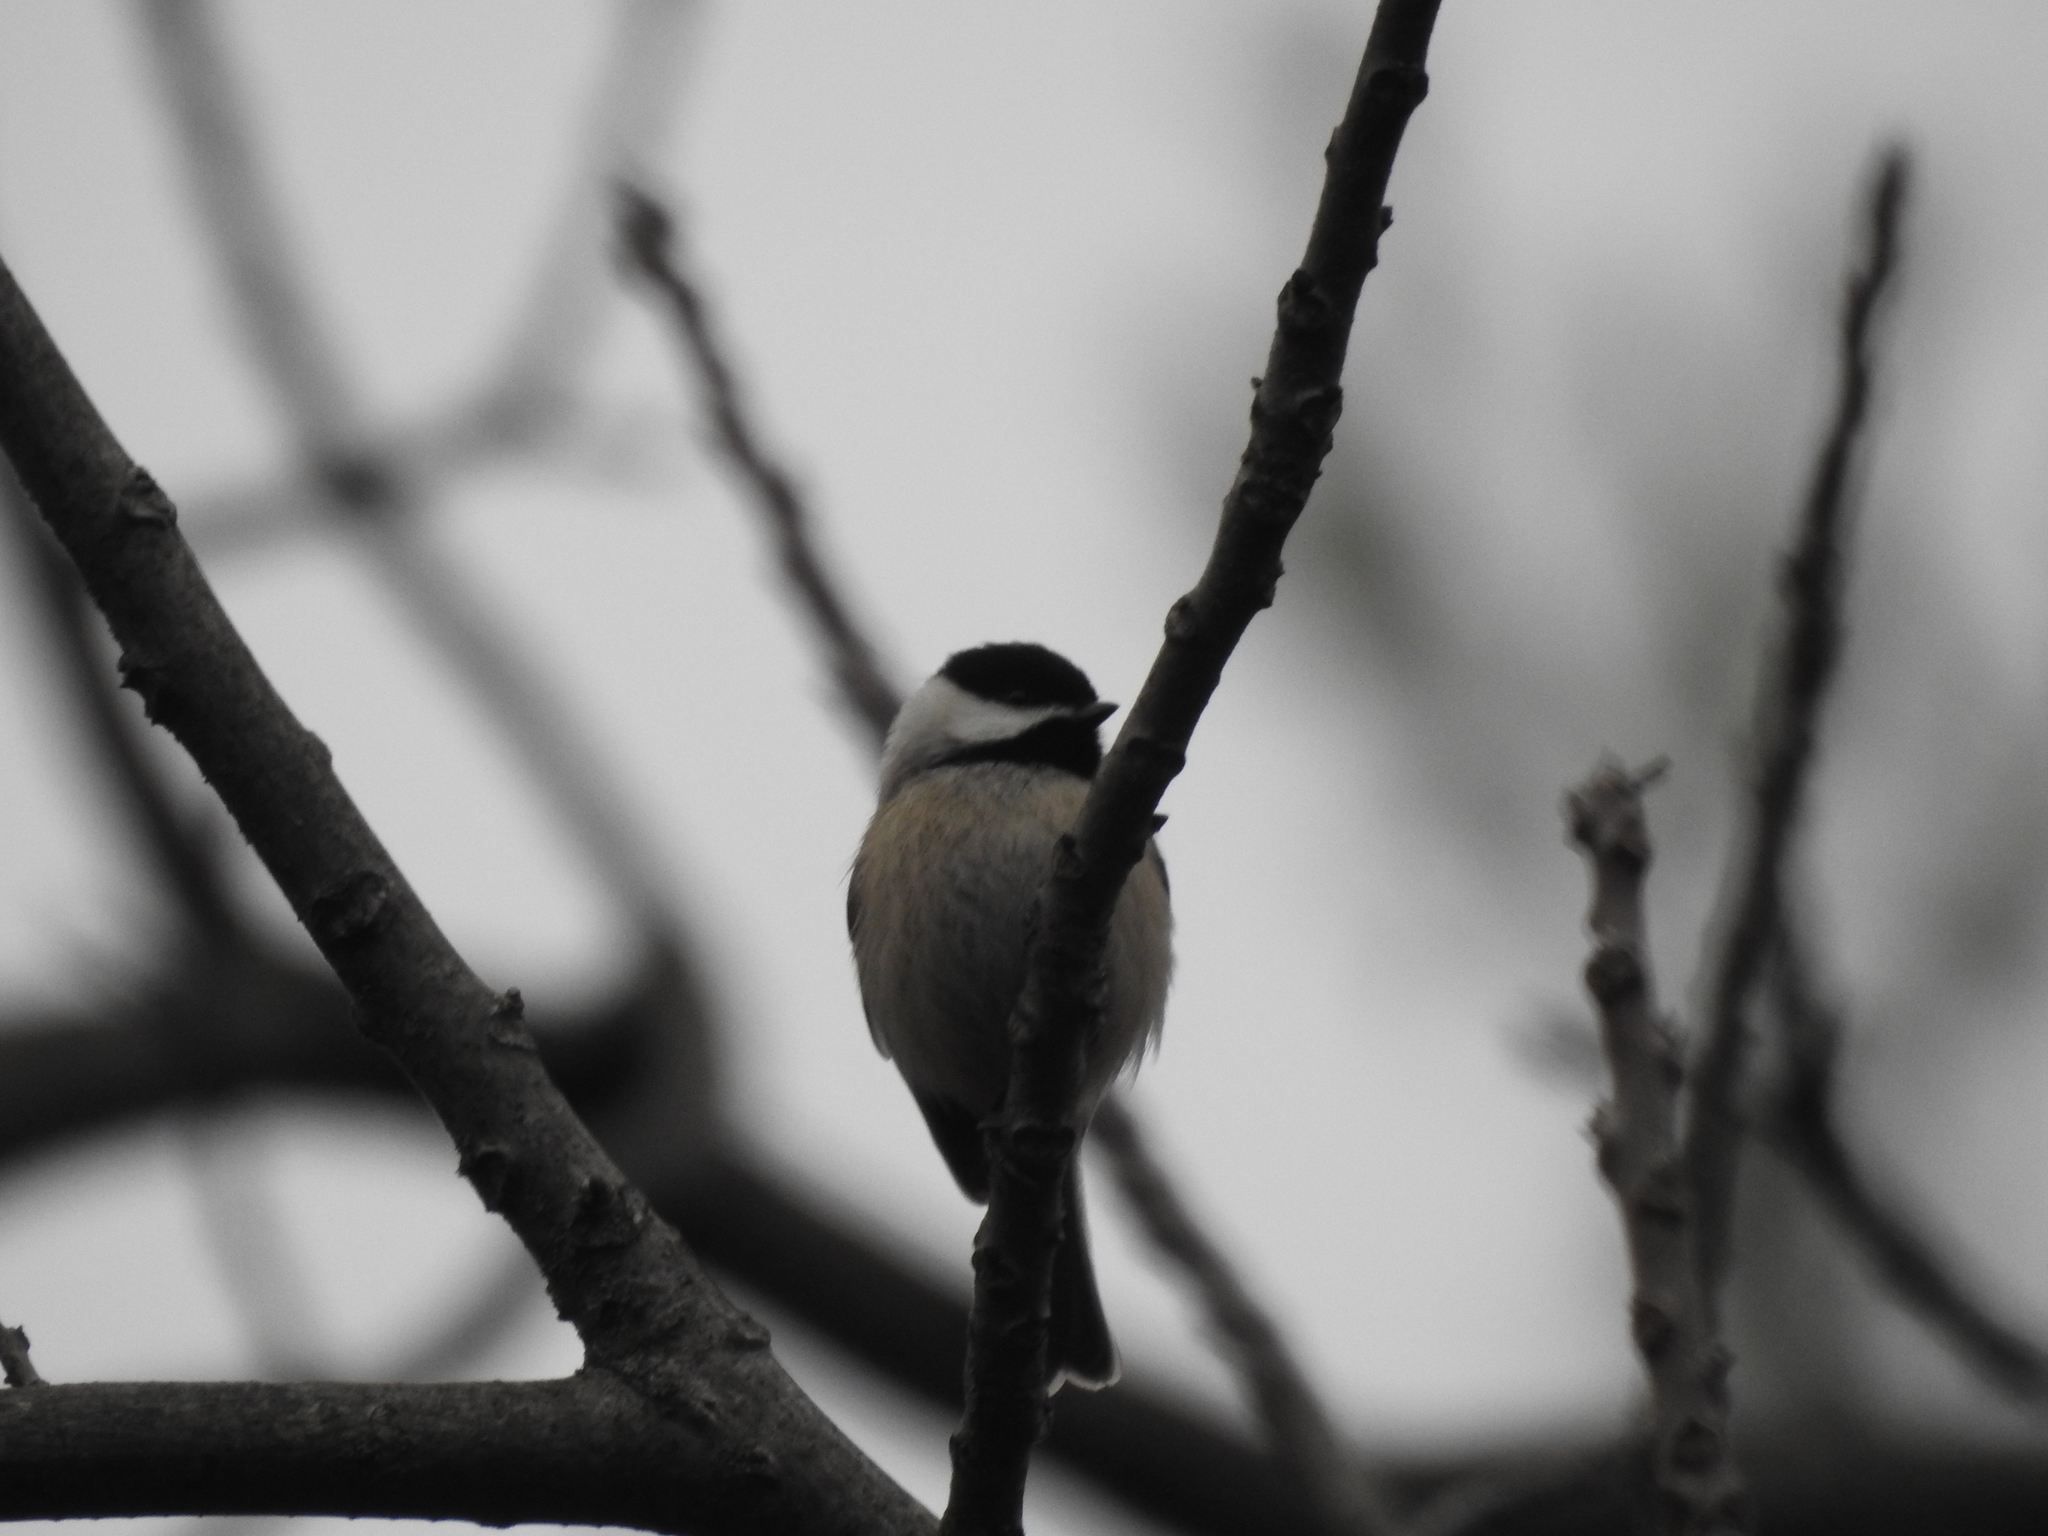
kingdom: Animalia
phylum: Chordata
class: Aves
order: Passeriformes
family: Paridae
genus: Poecile
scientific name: Poecile carolinensis
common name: Carolina chickadee
